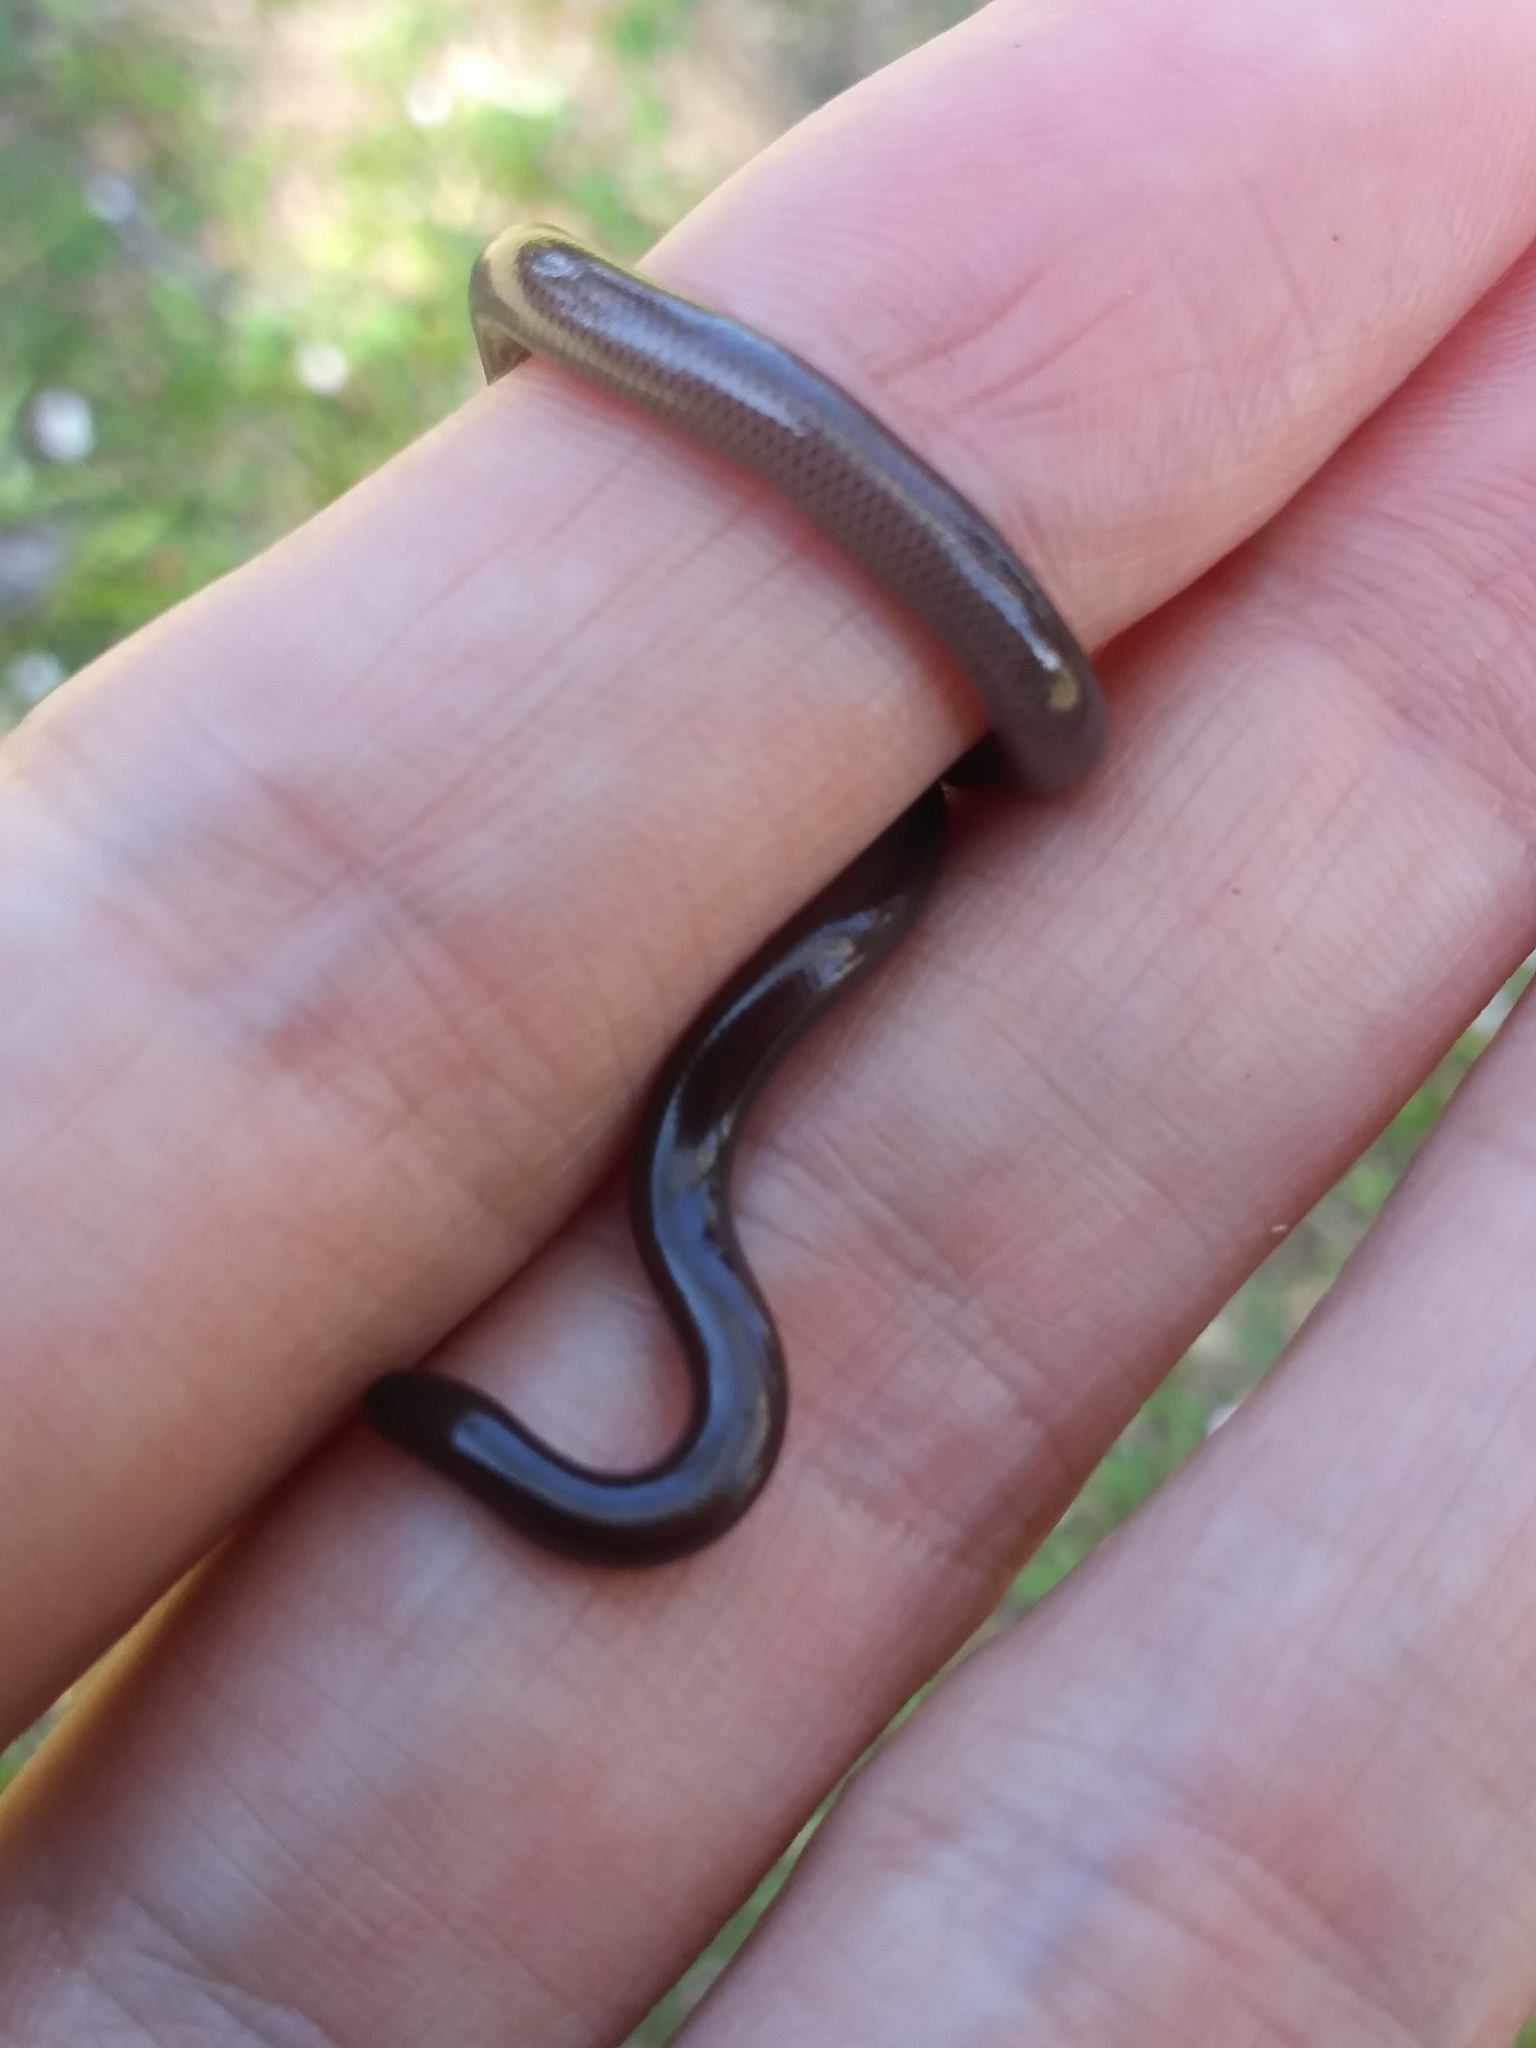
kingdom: Animalia
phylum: Chordata
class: Squamata
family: Typhlopidae
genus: Indotyphlops
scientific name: Indotyphlops braminus
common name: Brahminy blindsnake
